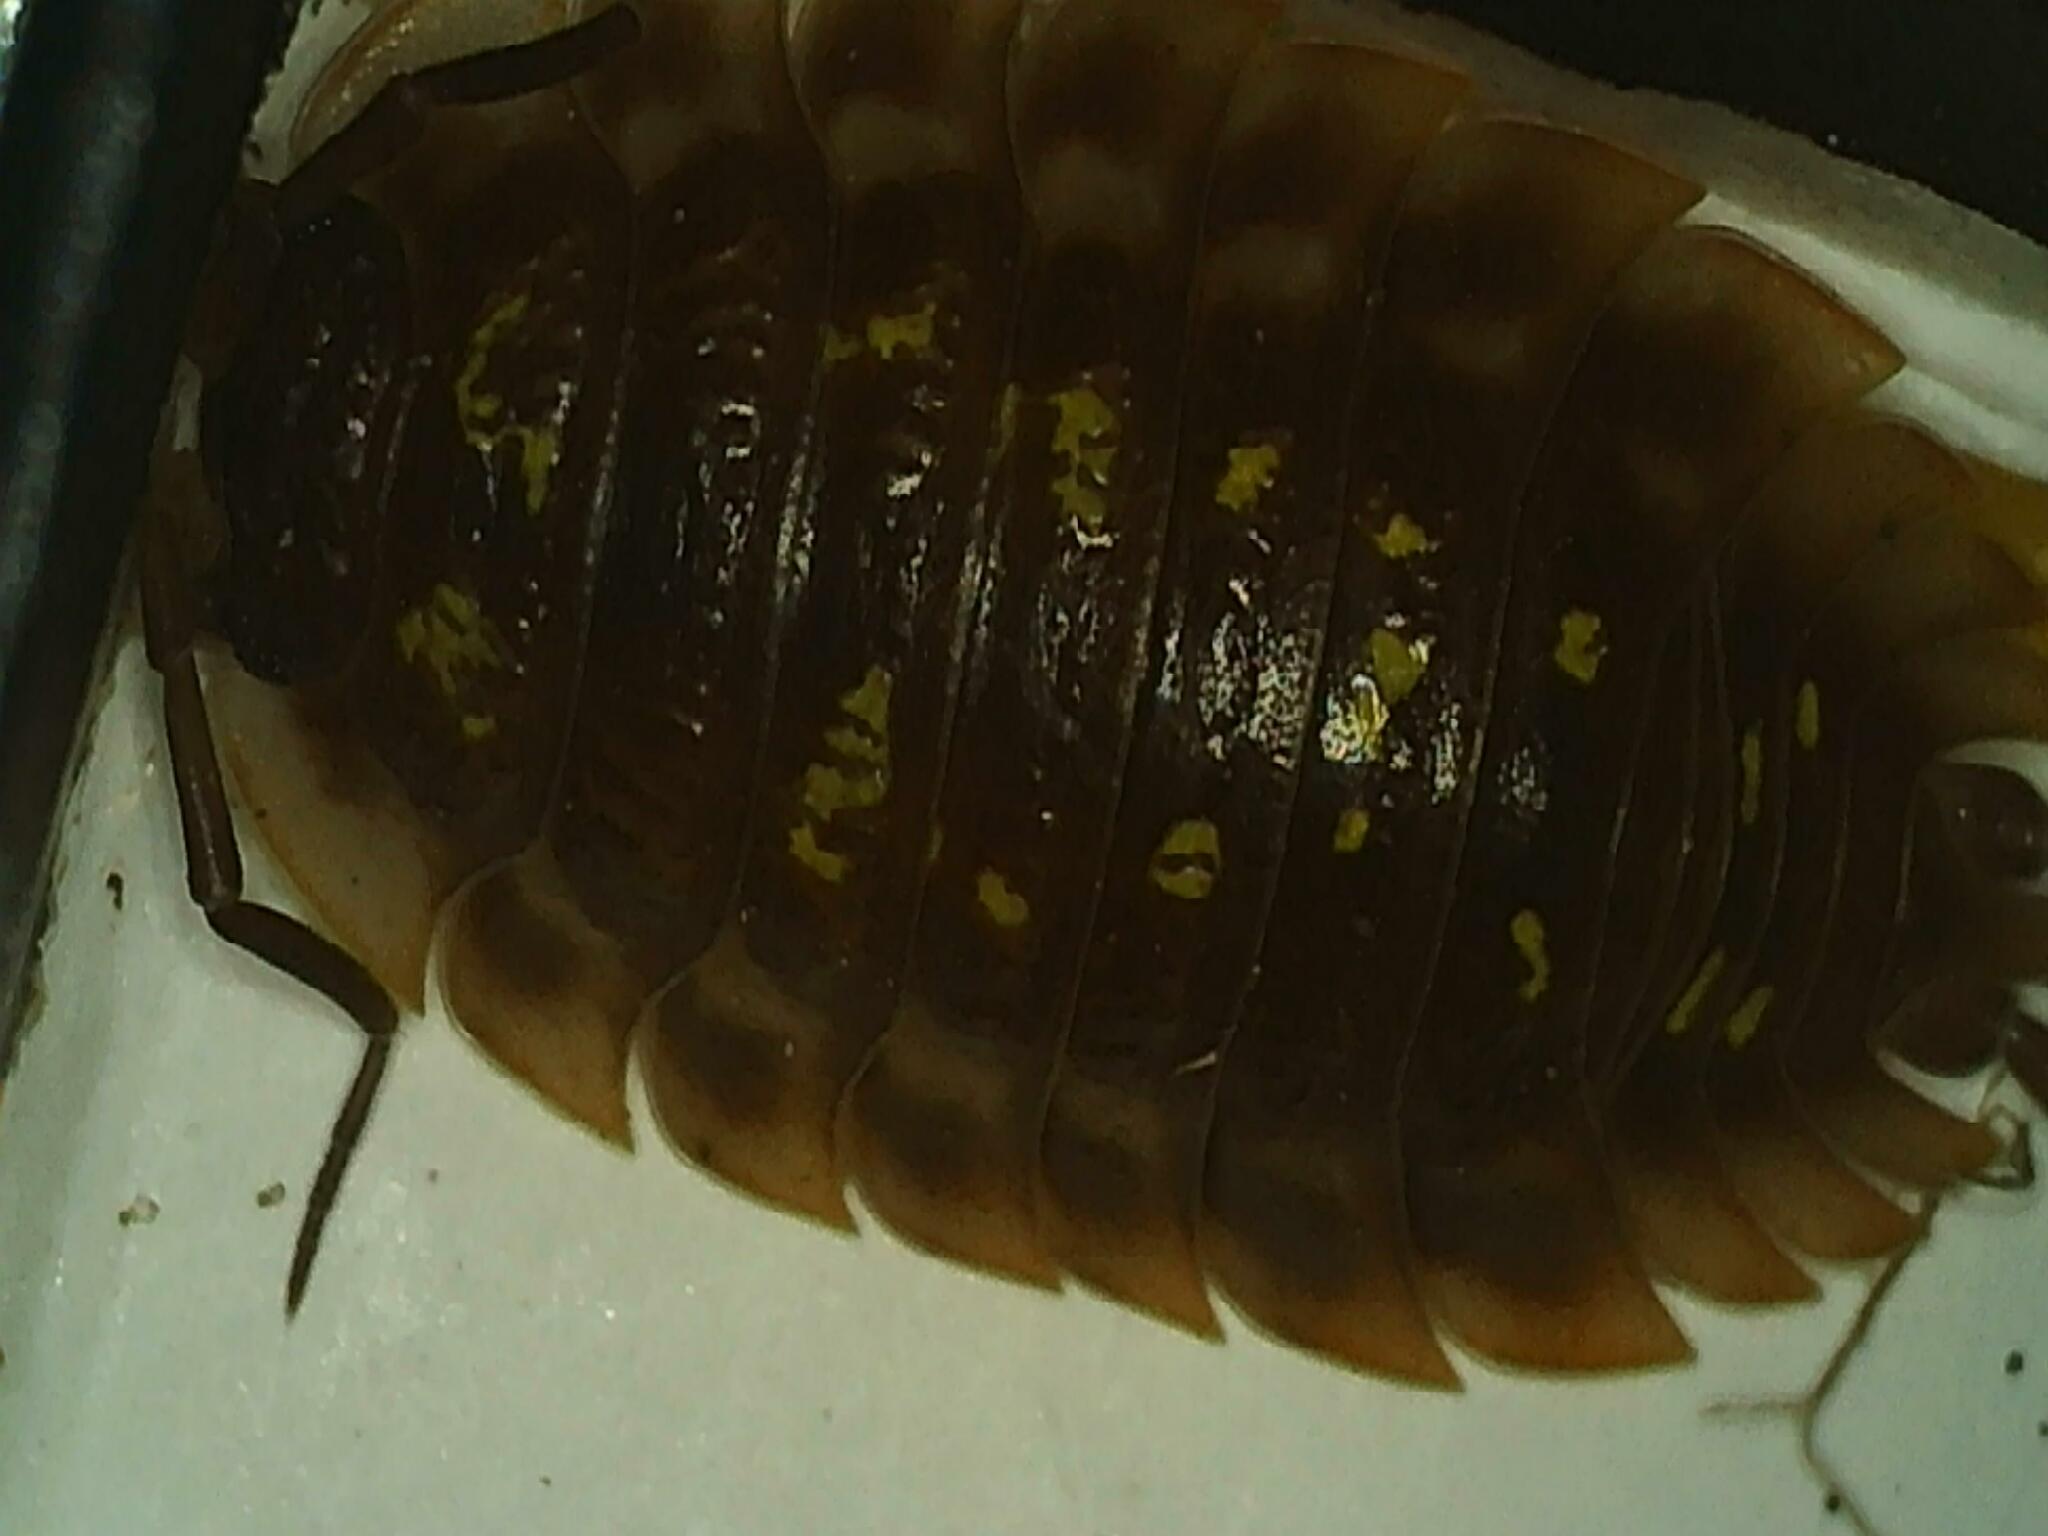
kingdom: Animalia
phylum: Arthropoda
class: Malacostraca
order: Isopoda
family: Oniscidae
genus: Oniscus
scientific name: Oniscus asellus
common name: Common shiny woodlouse
